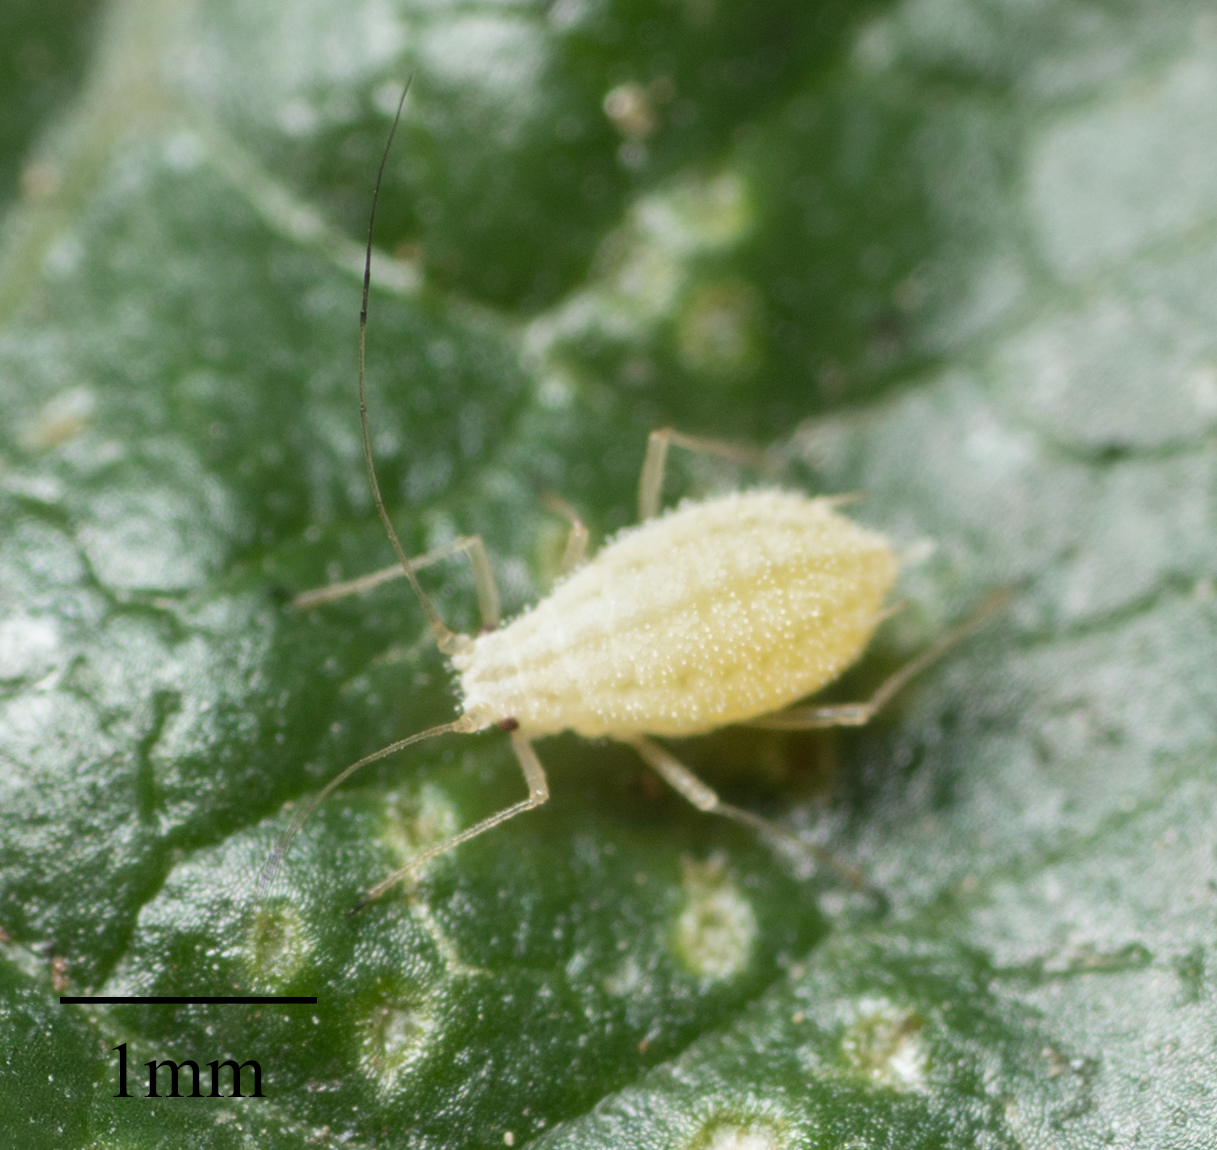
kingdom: Animalia
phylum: Arthropoda
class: Insecta
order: Hemiptera
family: Aphididae
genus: Pleotrichophorus
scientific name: Pleotrichophorus gnaphalodes
